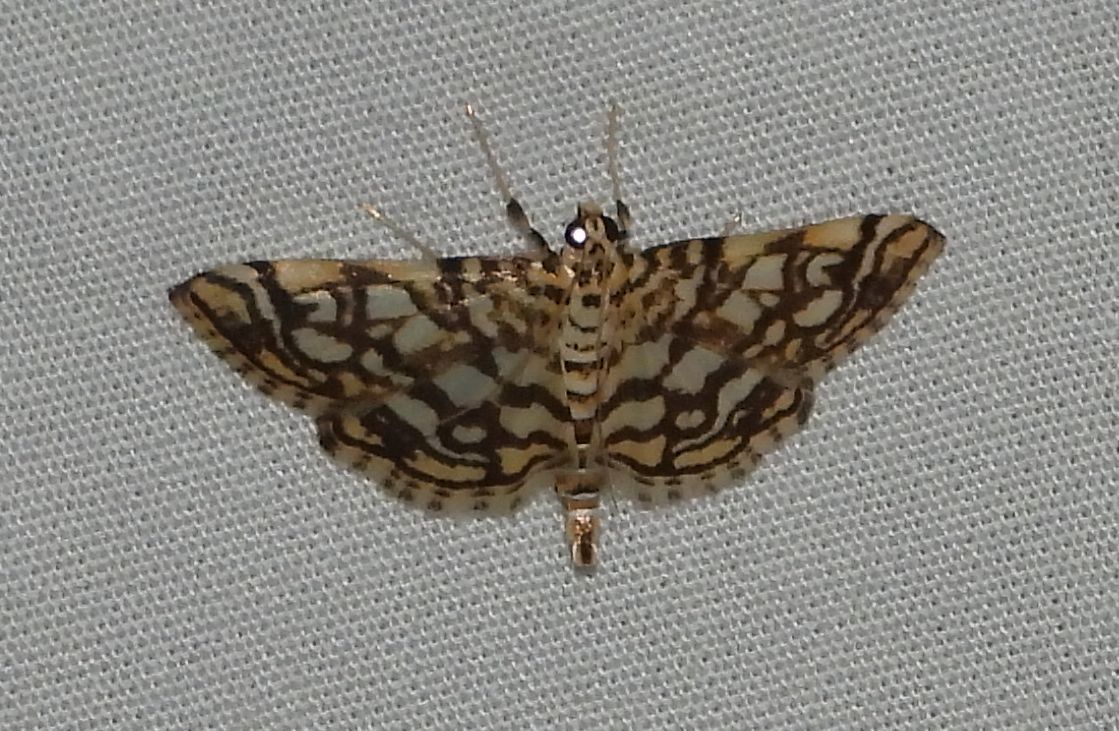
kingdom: Animalia
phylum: Arthropoda
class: Insecta
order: Lepidoptera
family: Crambidae
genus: Lygropia
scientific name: Lygropia rivulalis
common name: Bog lygropia moth
